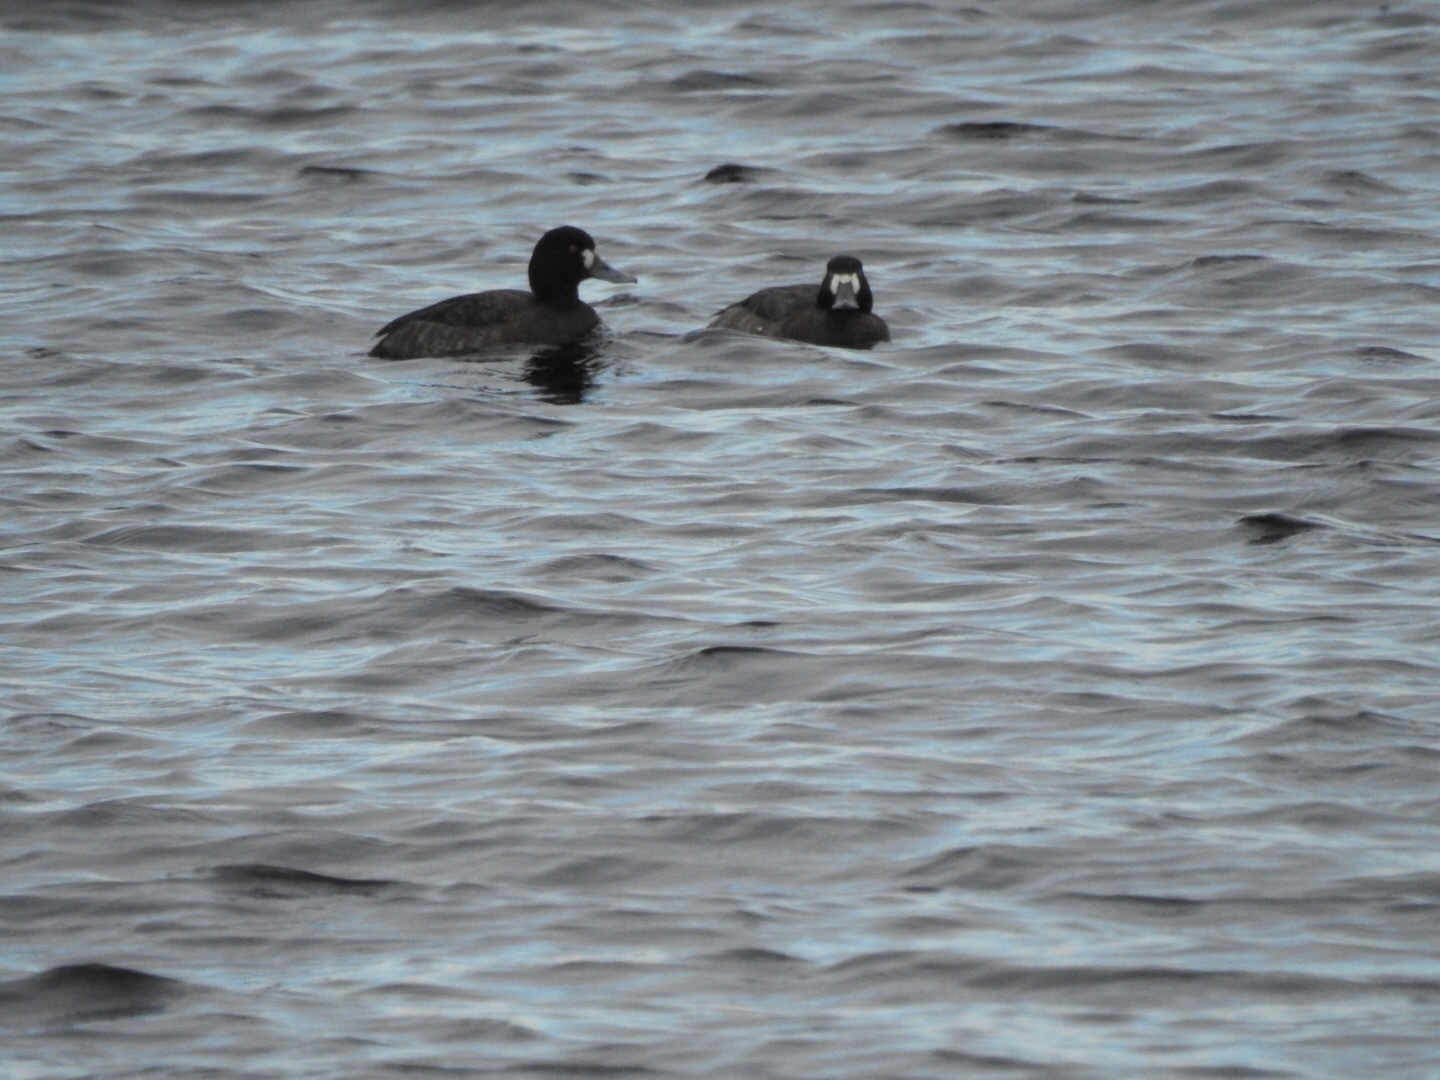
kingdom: Animalia
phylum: Chordata
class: Aves
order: Anseriformes
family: Anatidae
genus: Aythya
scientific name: Aythya marila
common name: Greater scaup
